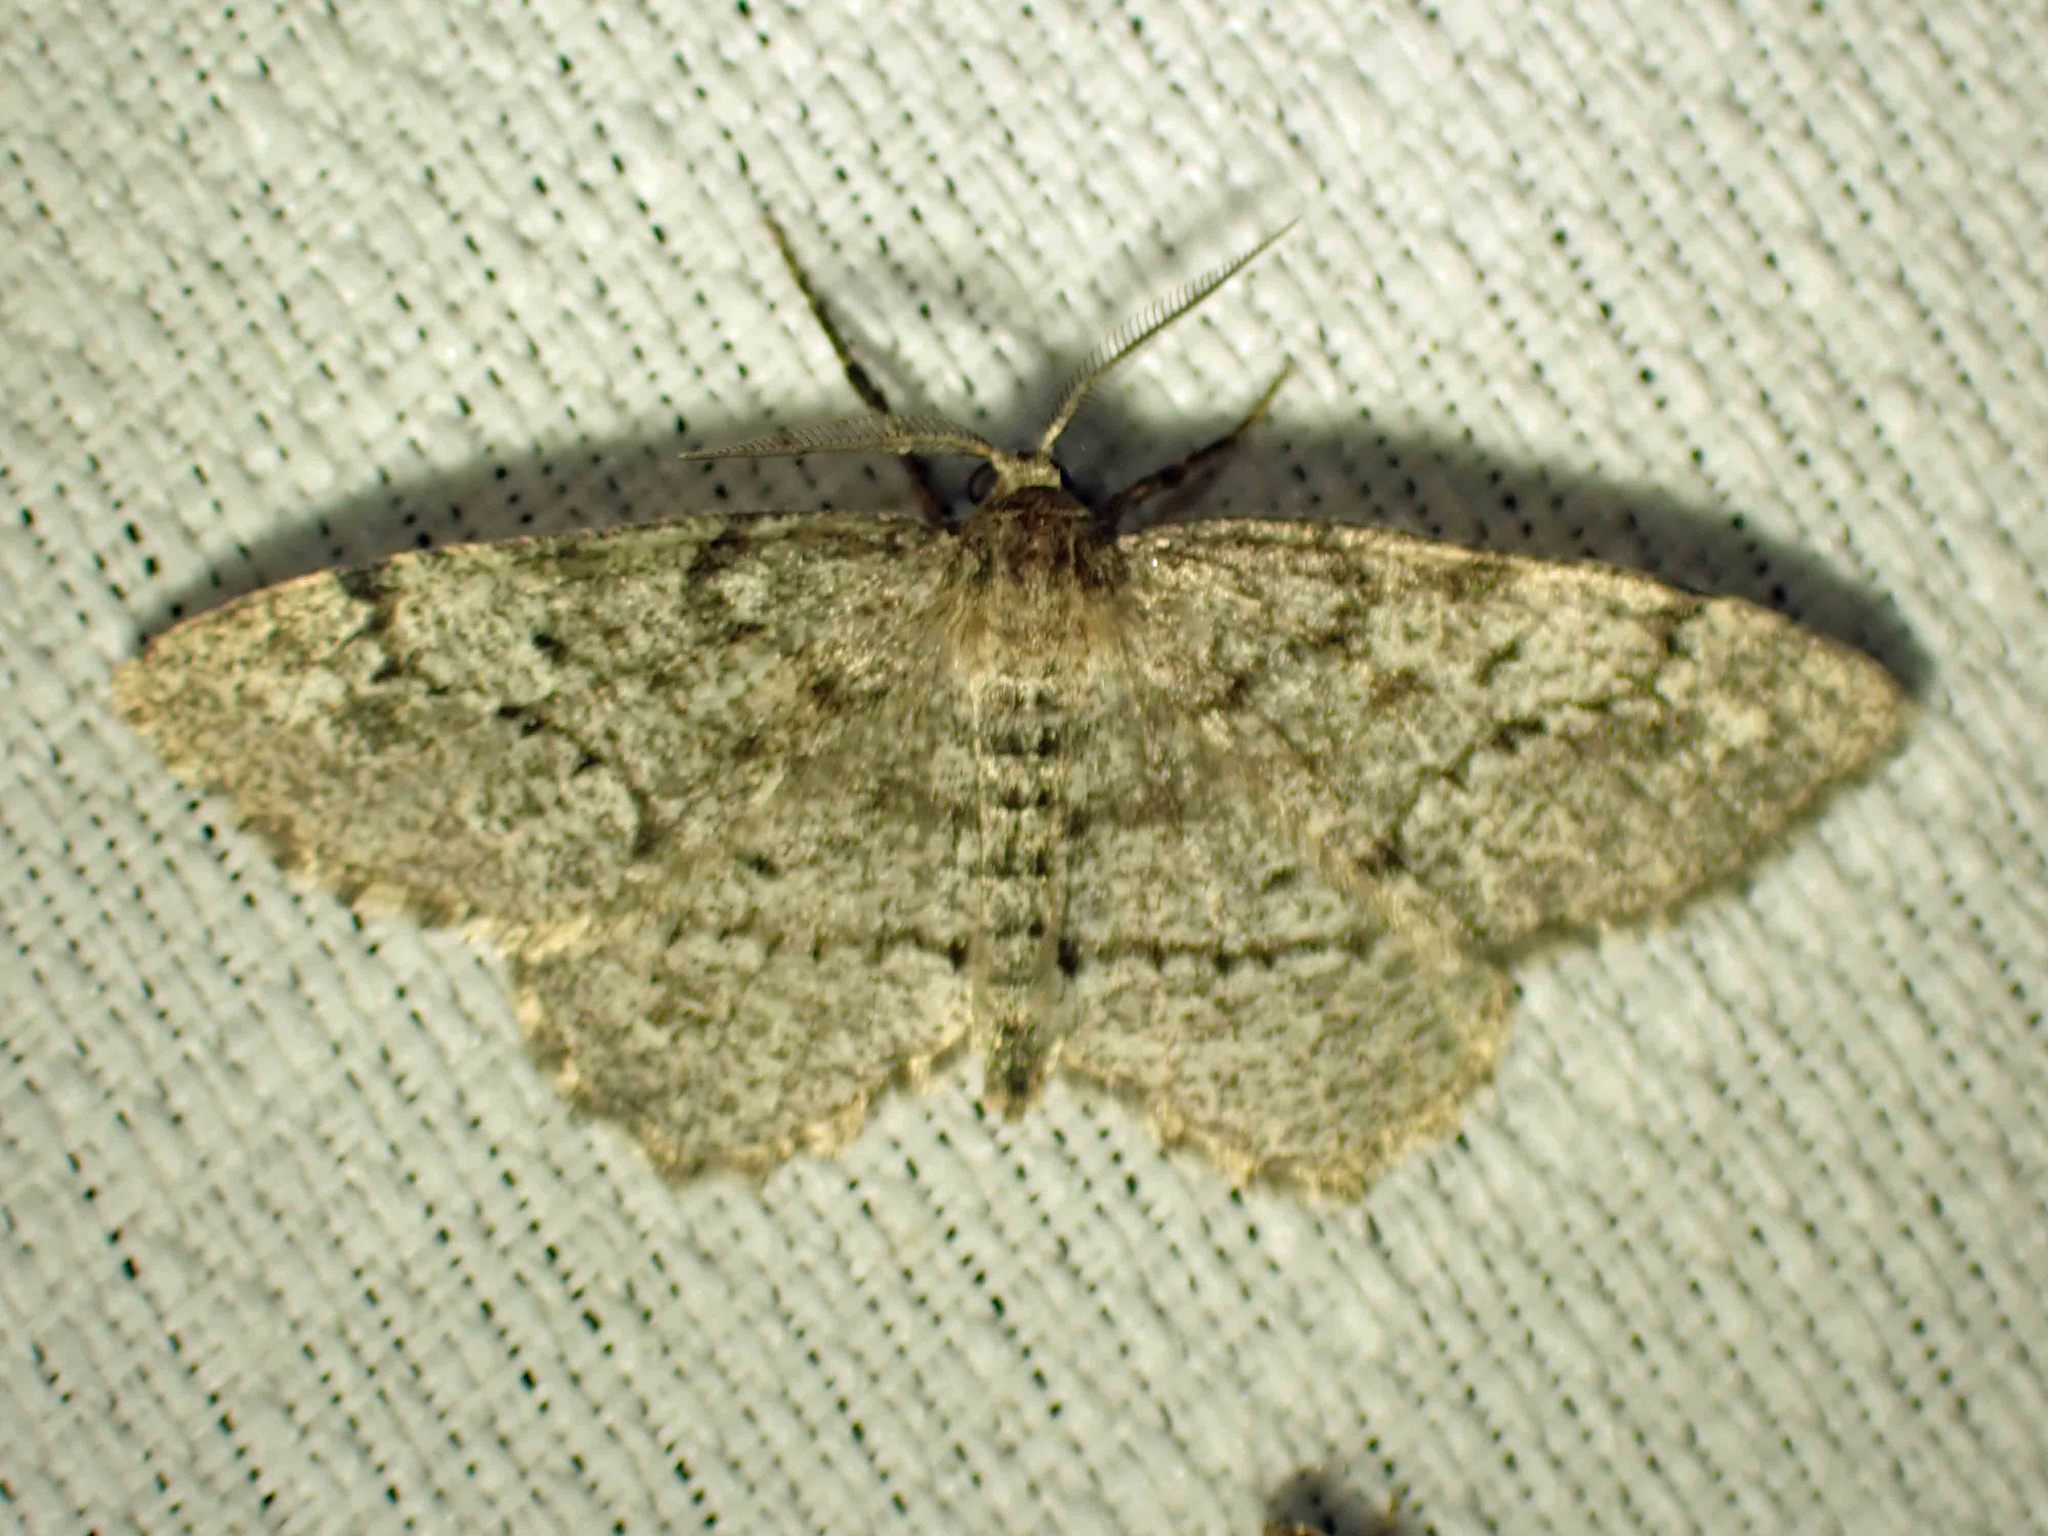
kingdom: Animalia
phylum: Arthropoda
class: Insecta
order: Lepidoptera
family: Geometridae
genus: Hypagyrtis
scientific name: Hypagyrtis piniata
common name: Pine measuringworm
